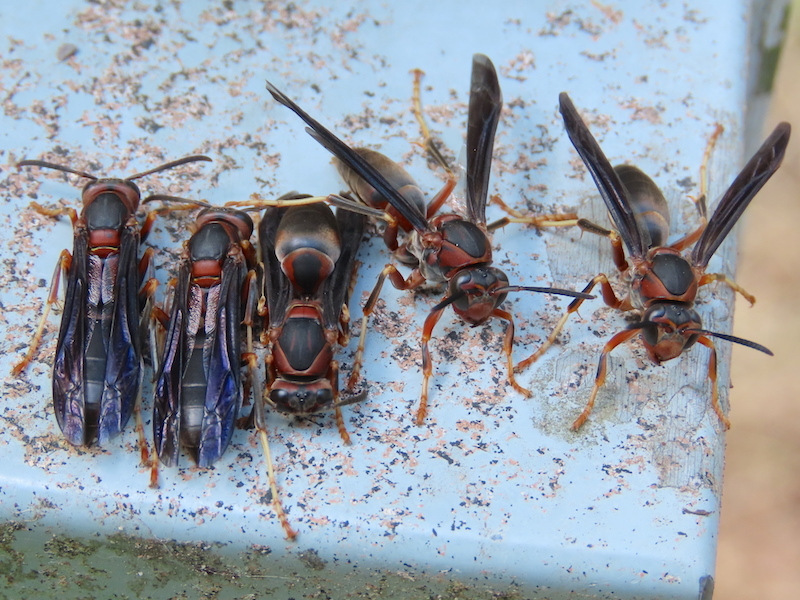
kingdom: Animalia
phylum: Arthropoda
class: Insecta
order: Hymenoptera
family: Eumenidae
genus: Polistes
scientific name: Polistes metricus
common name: Metric paper wasp
